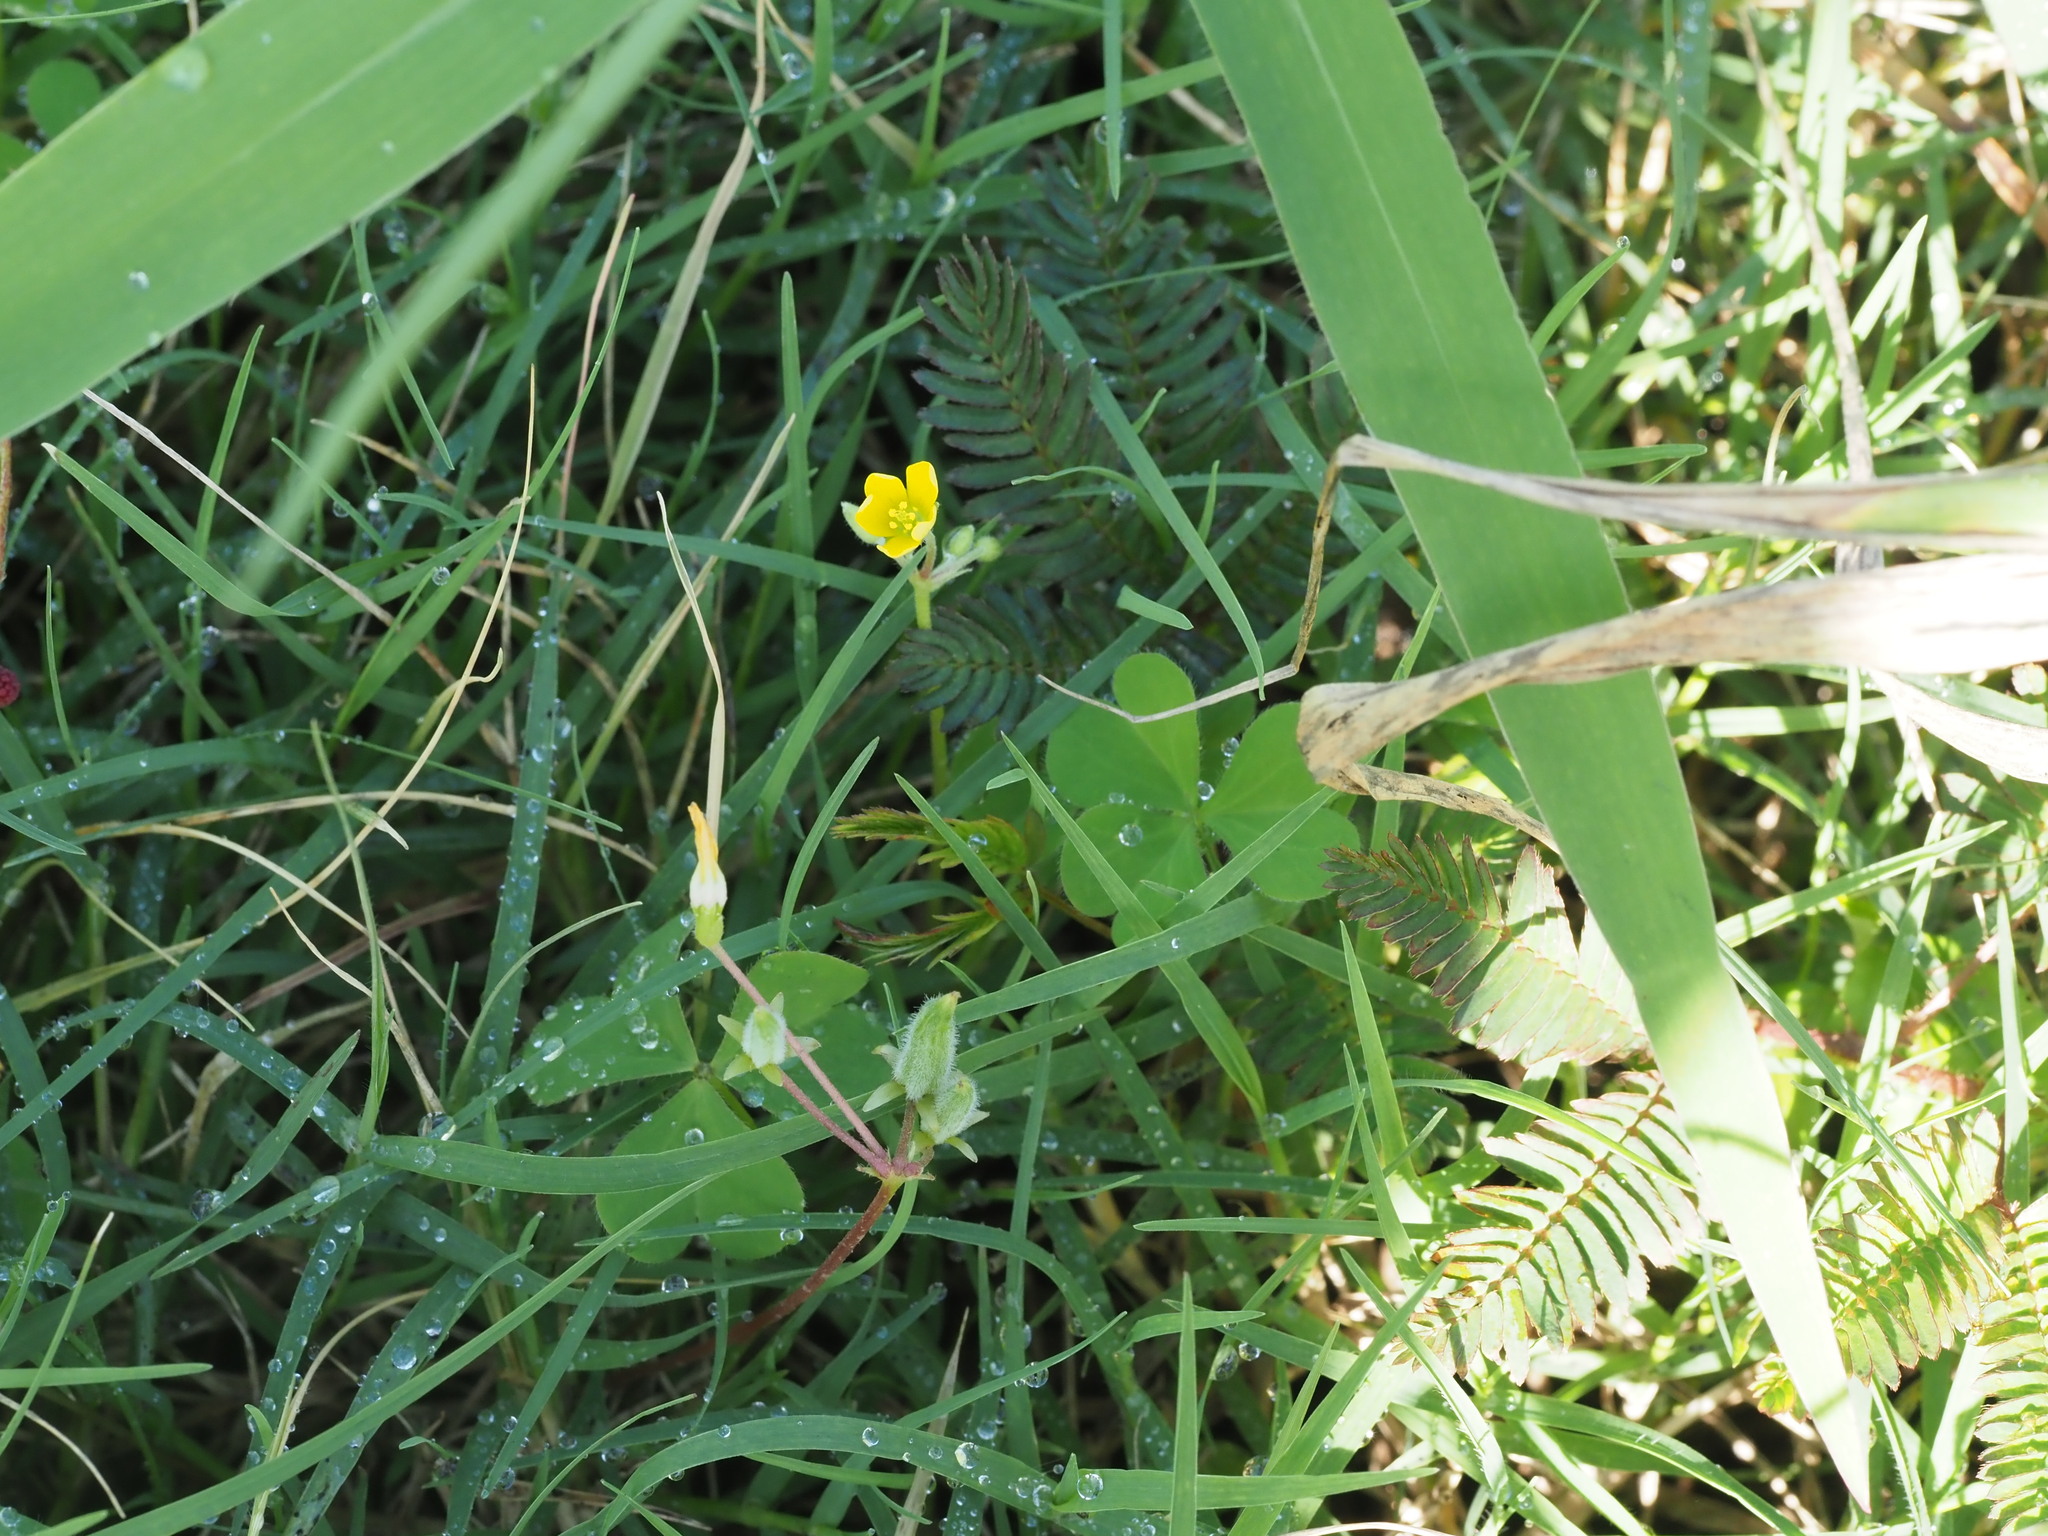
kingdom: Plantae
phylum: Tracheophyta
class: Magnoliopsida
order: Oxalidales
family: Oxalidaceae
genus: Oxalis
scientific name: Oxalis corniculata
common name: Procumbent yellow-sorrel
